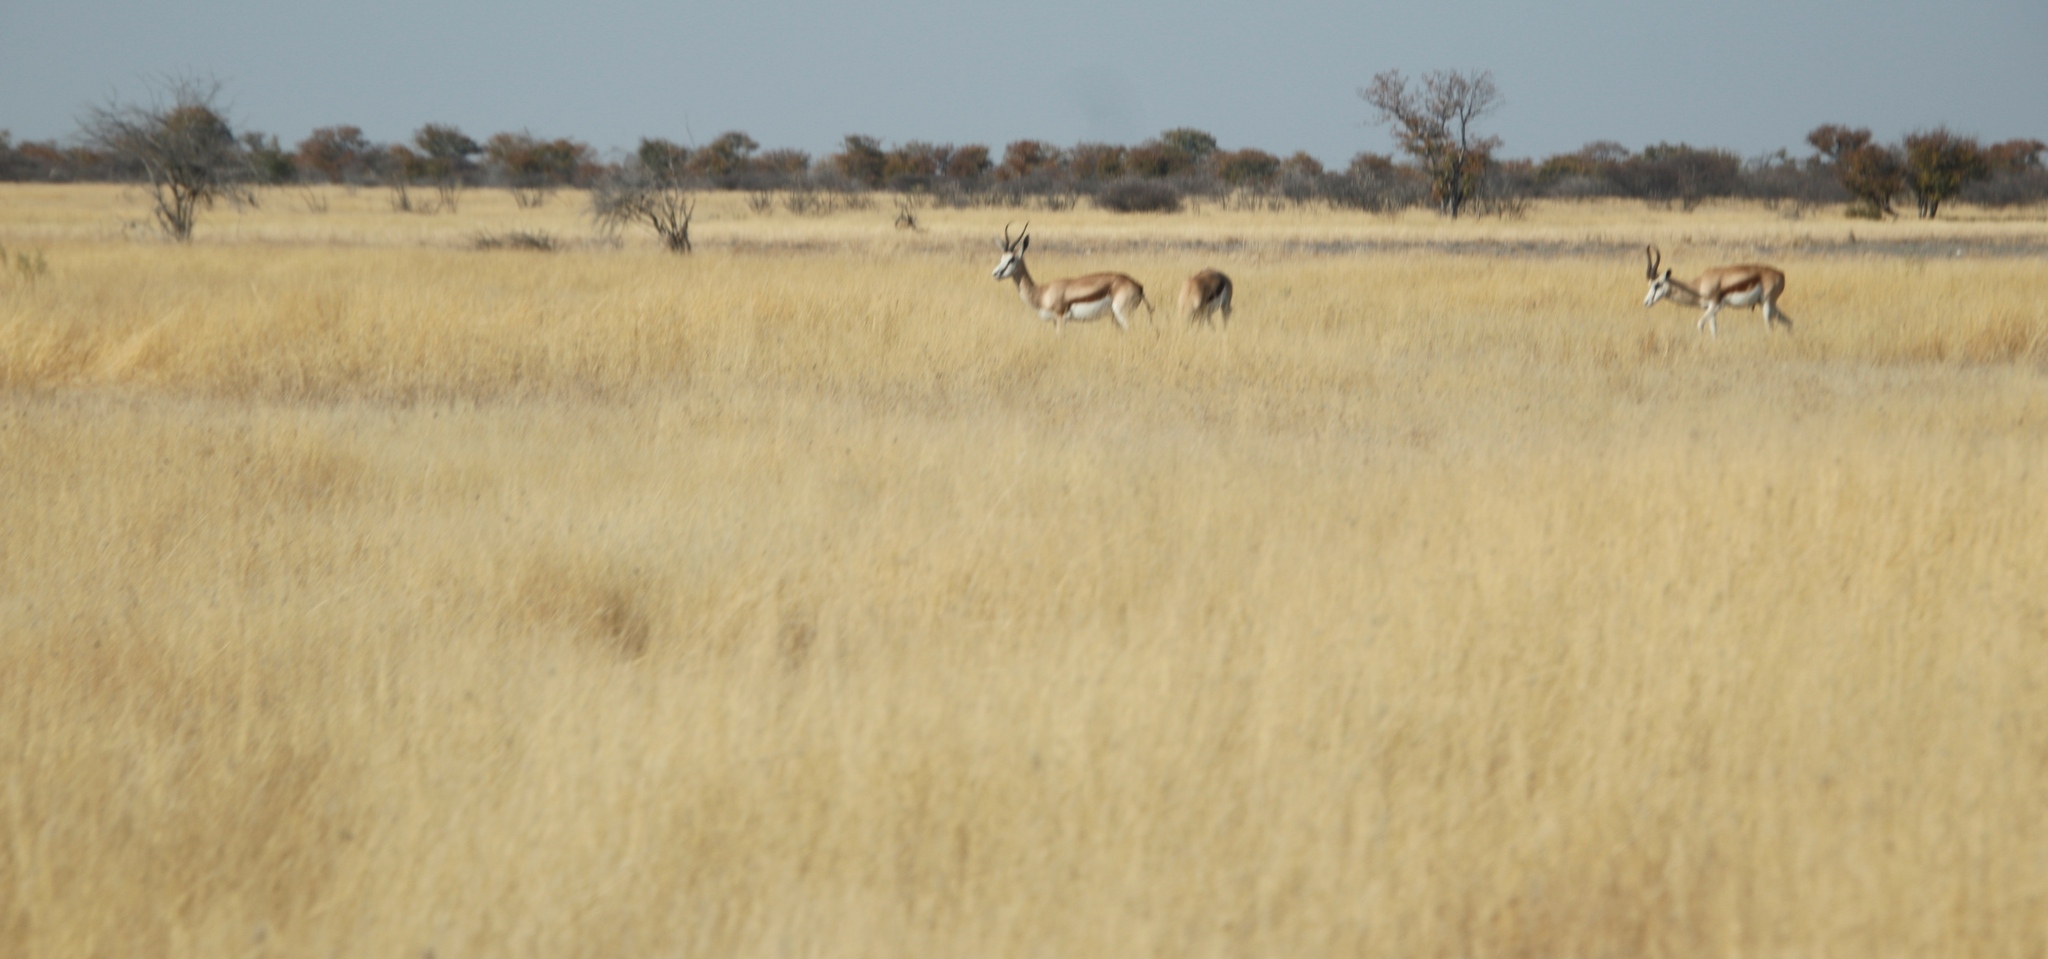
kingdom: Animalia
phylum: Chordata
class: Mammalia
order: Artiodactyla
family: Bovidae
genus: Antidorcas
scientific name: Antidorcas marsupialis
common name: Springbok
